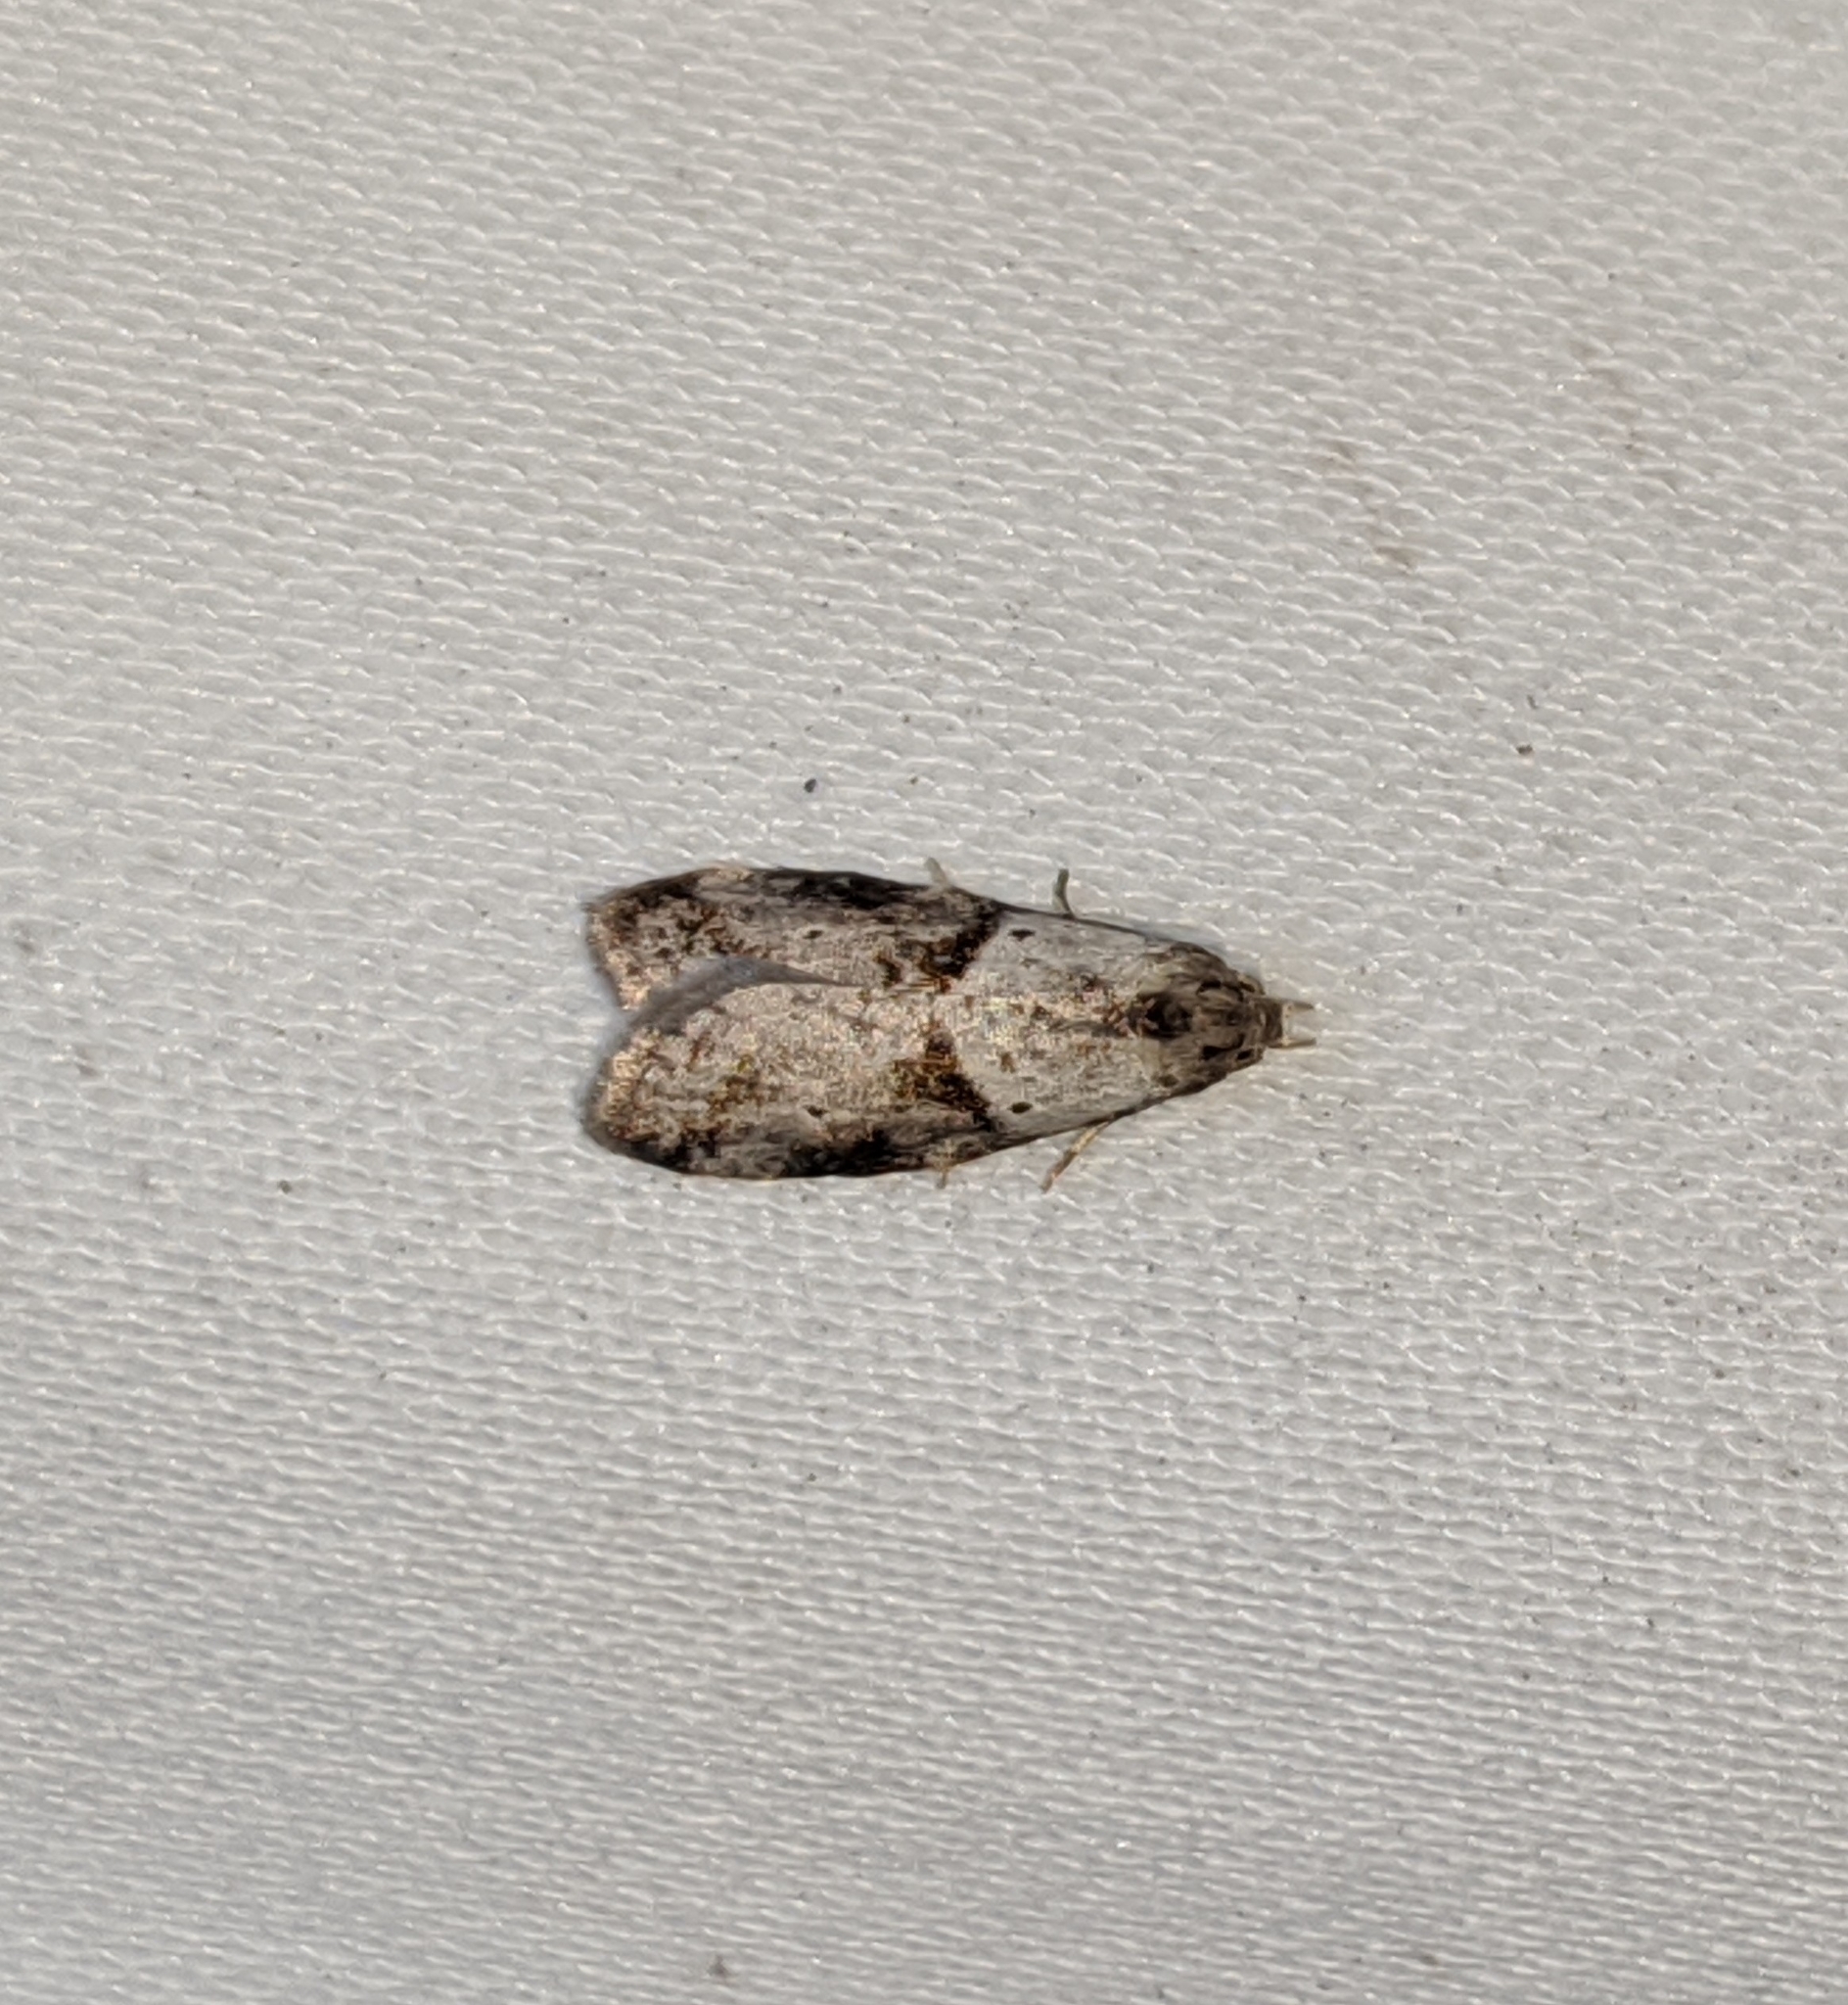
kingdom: Animalia
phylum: Arthropoda
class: Insecta
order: Lepidoptera
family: Copromorphidae
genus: Lotisma
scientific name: Lotisma trigonana
